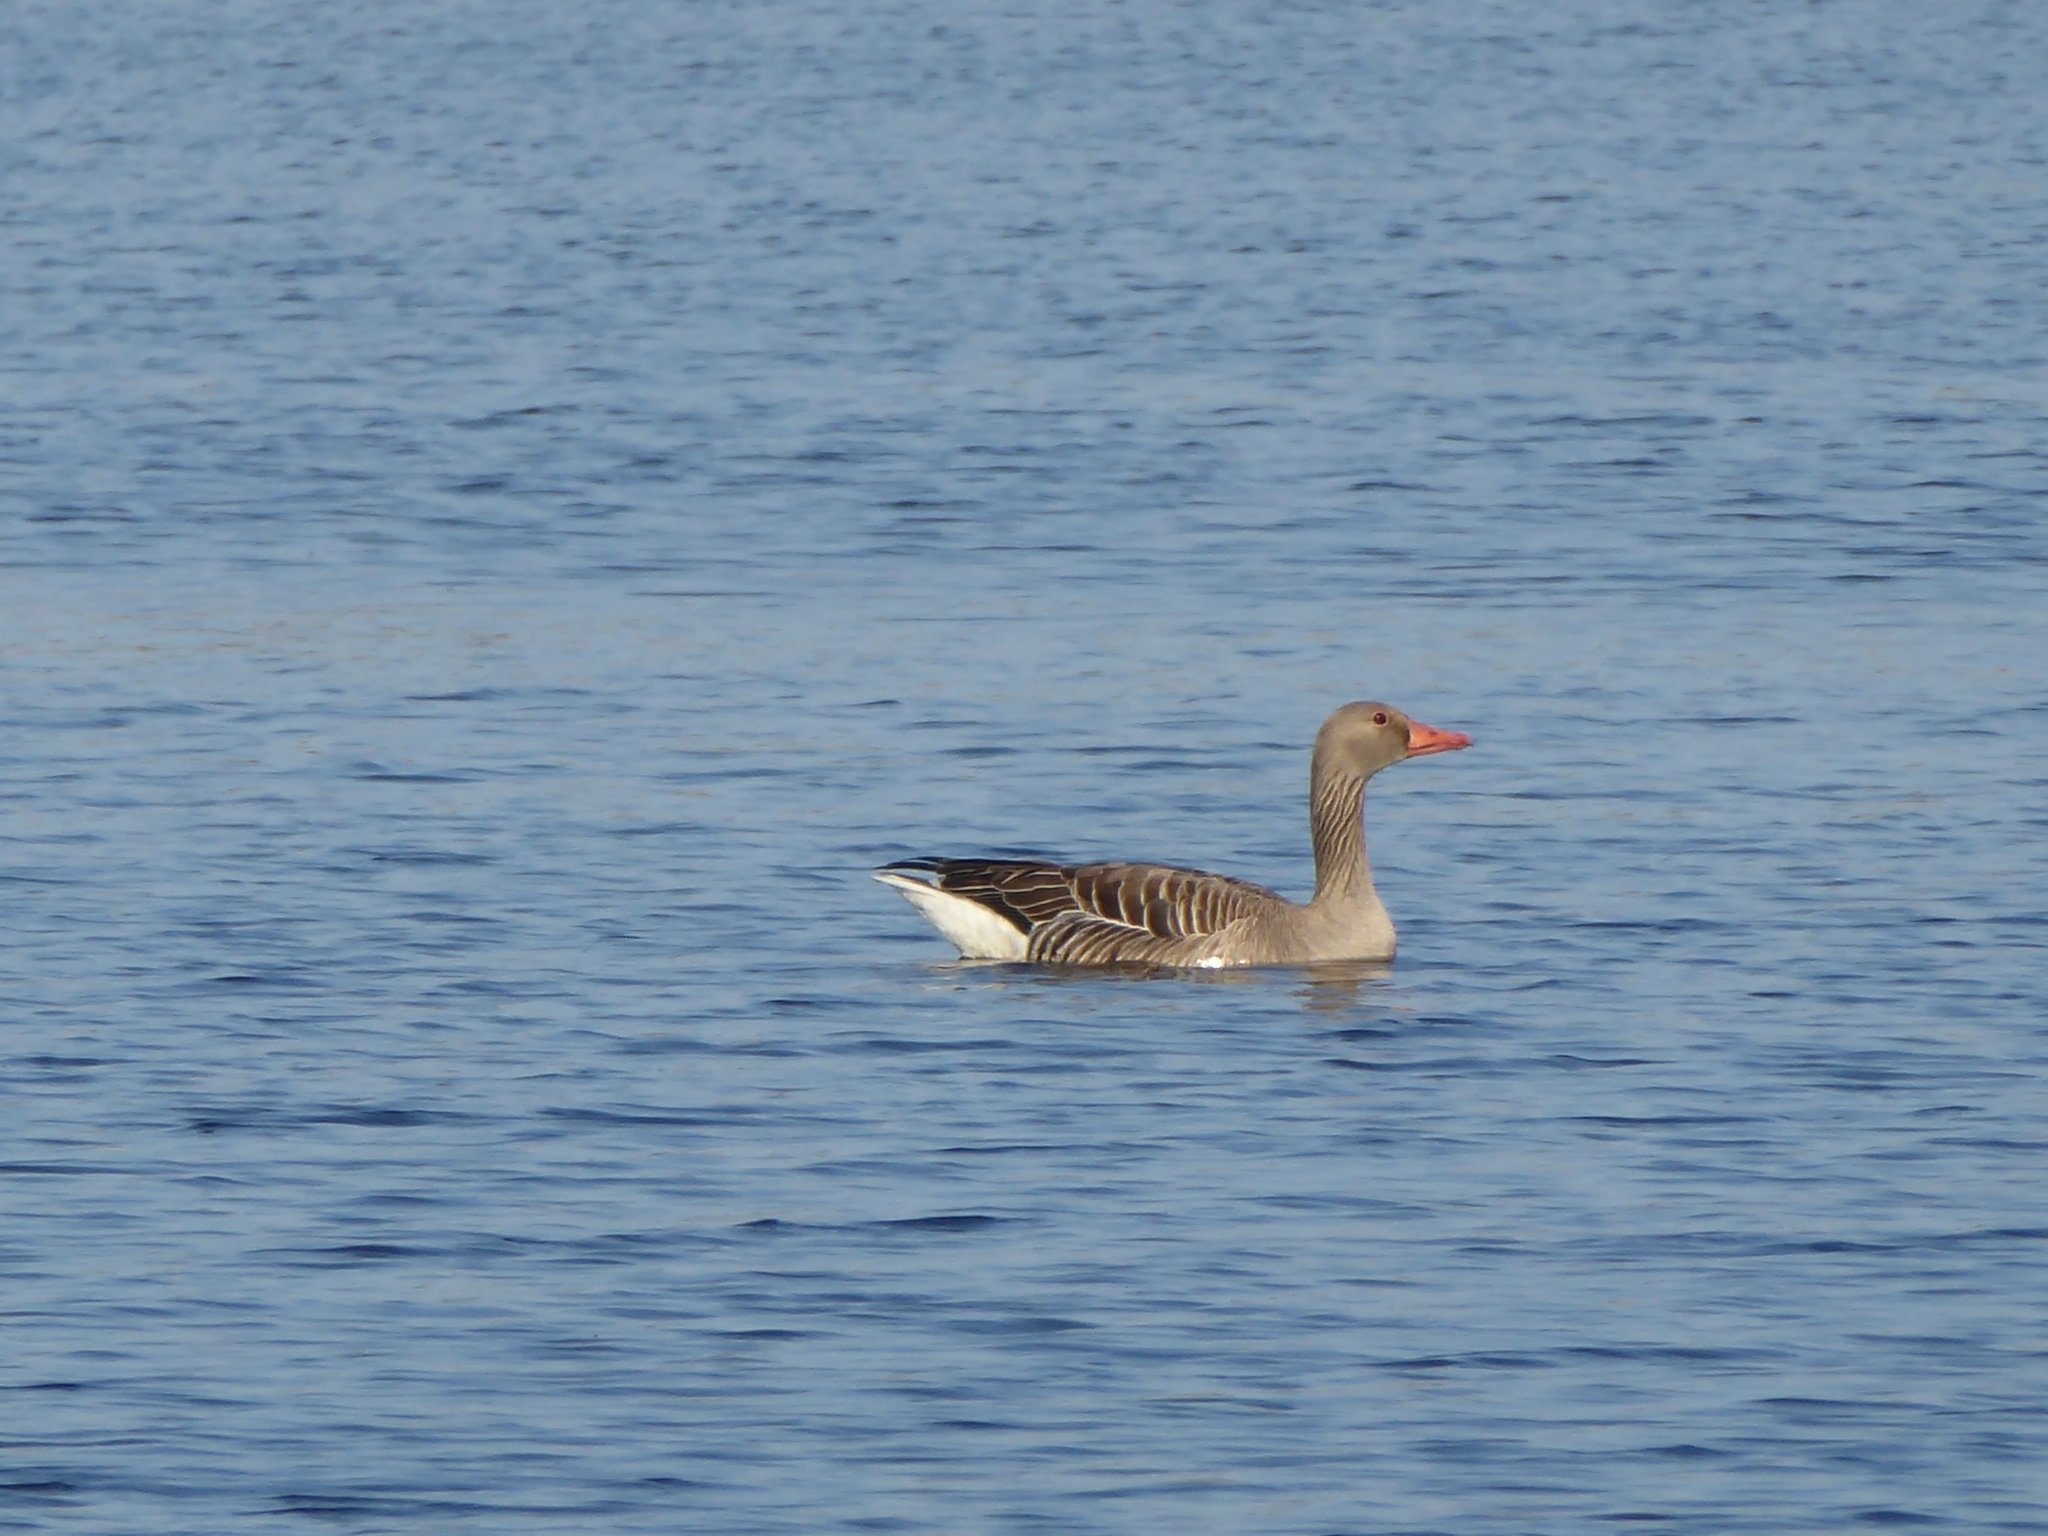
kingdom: Animalia
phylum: Chordata
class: Aves
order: Anseriformes
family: Anatidae
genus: Anser
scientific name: Anser anser
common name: Greylag goose
